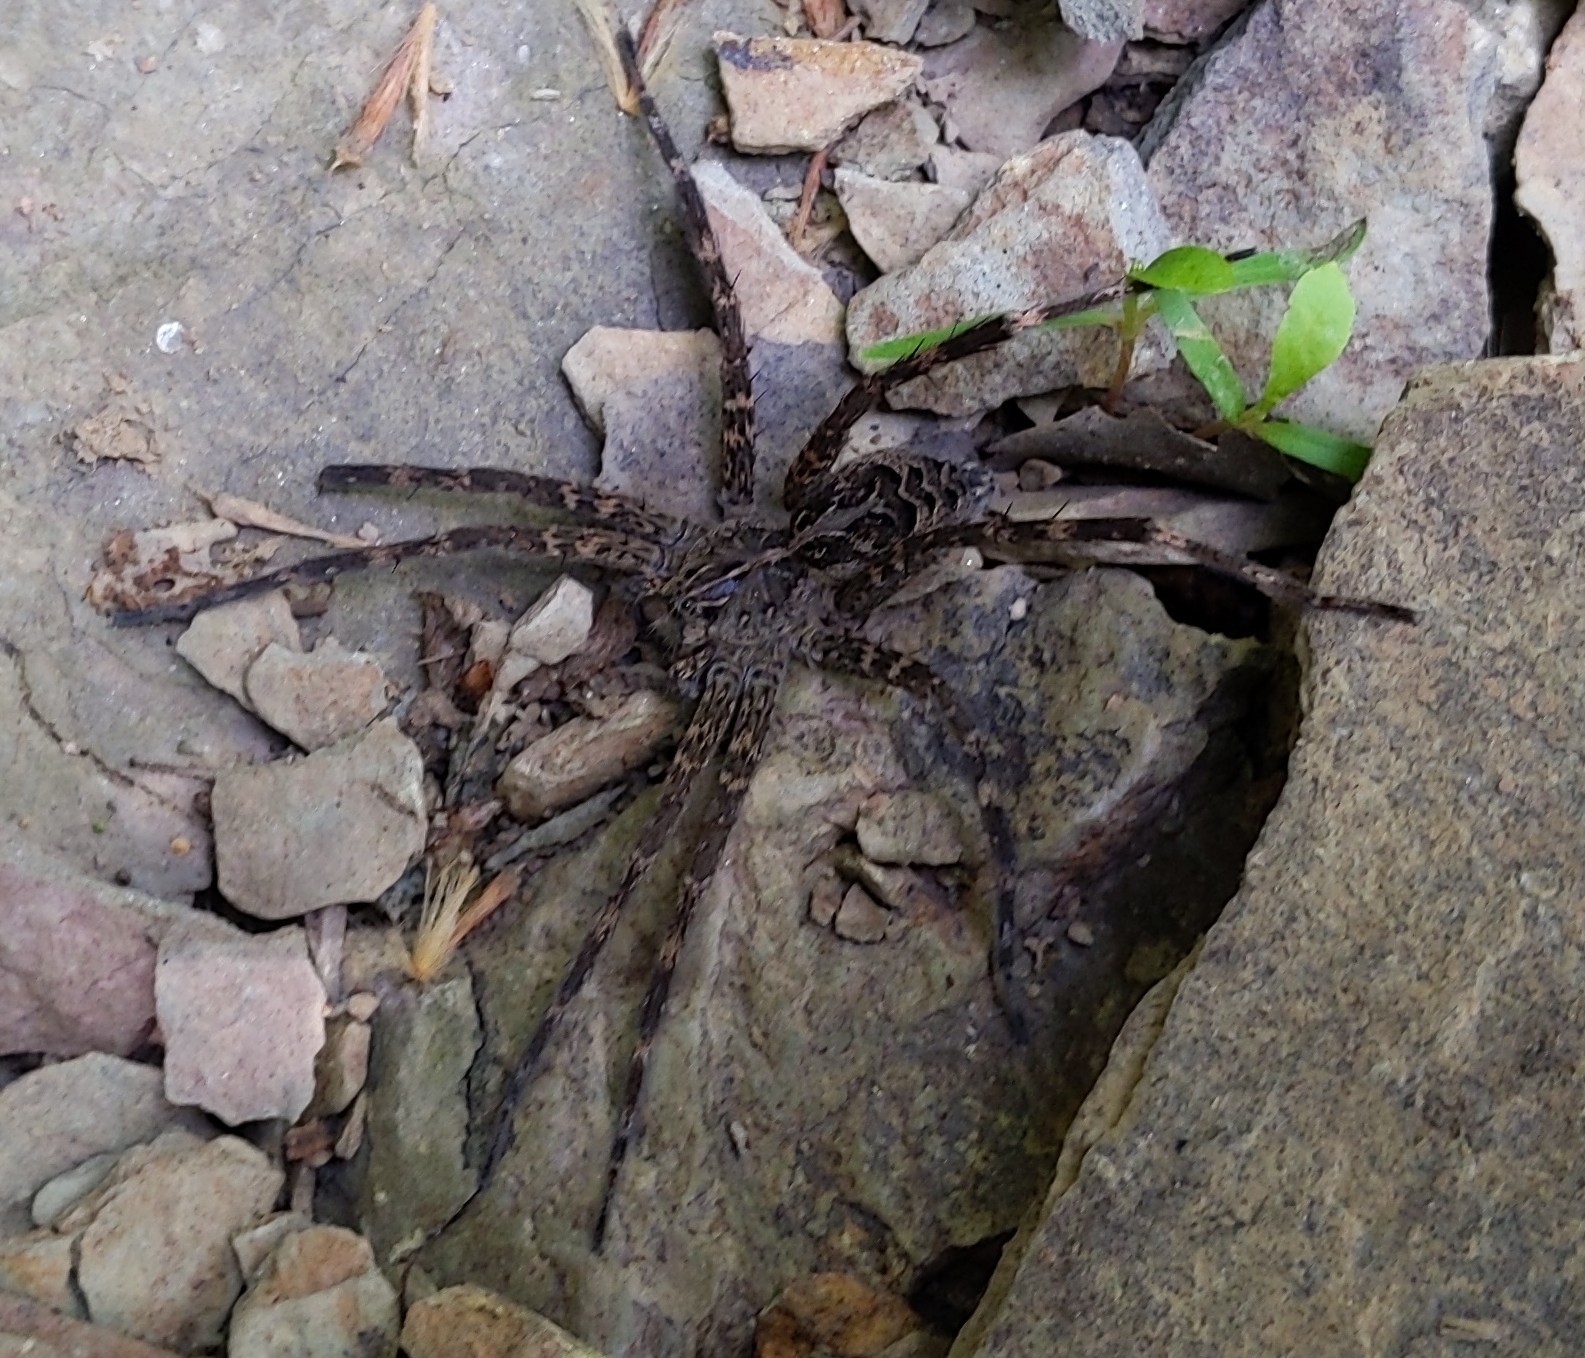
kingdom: Animalia
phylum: Arthropoda
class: Arachnida
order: Araneae
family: Pisauridae
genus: Dolomedes
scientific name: Dolomedes scriptus
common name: Striped fishing spider
